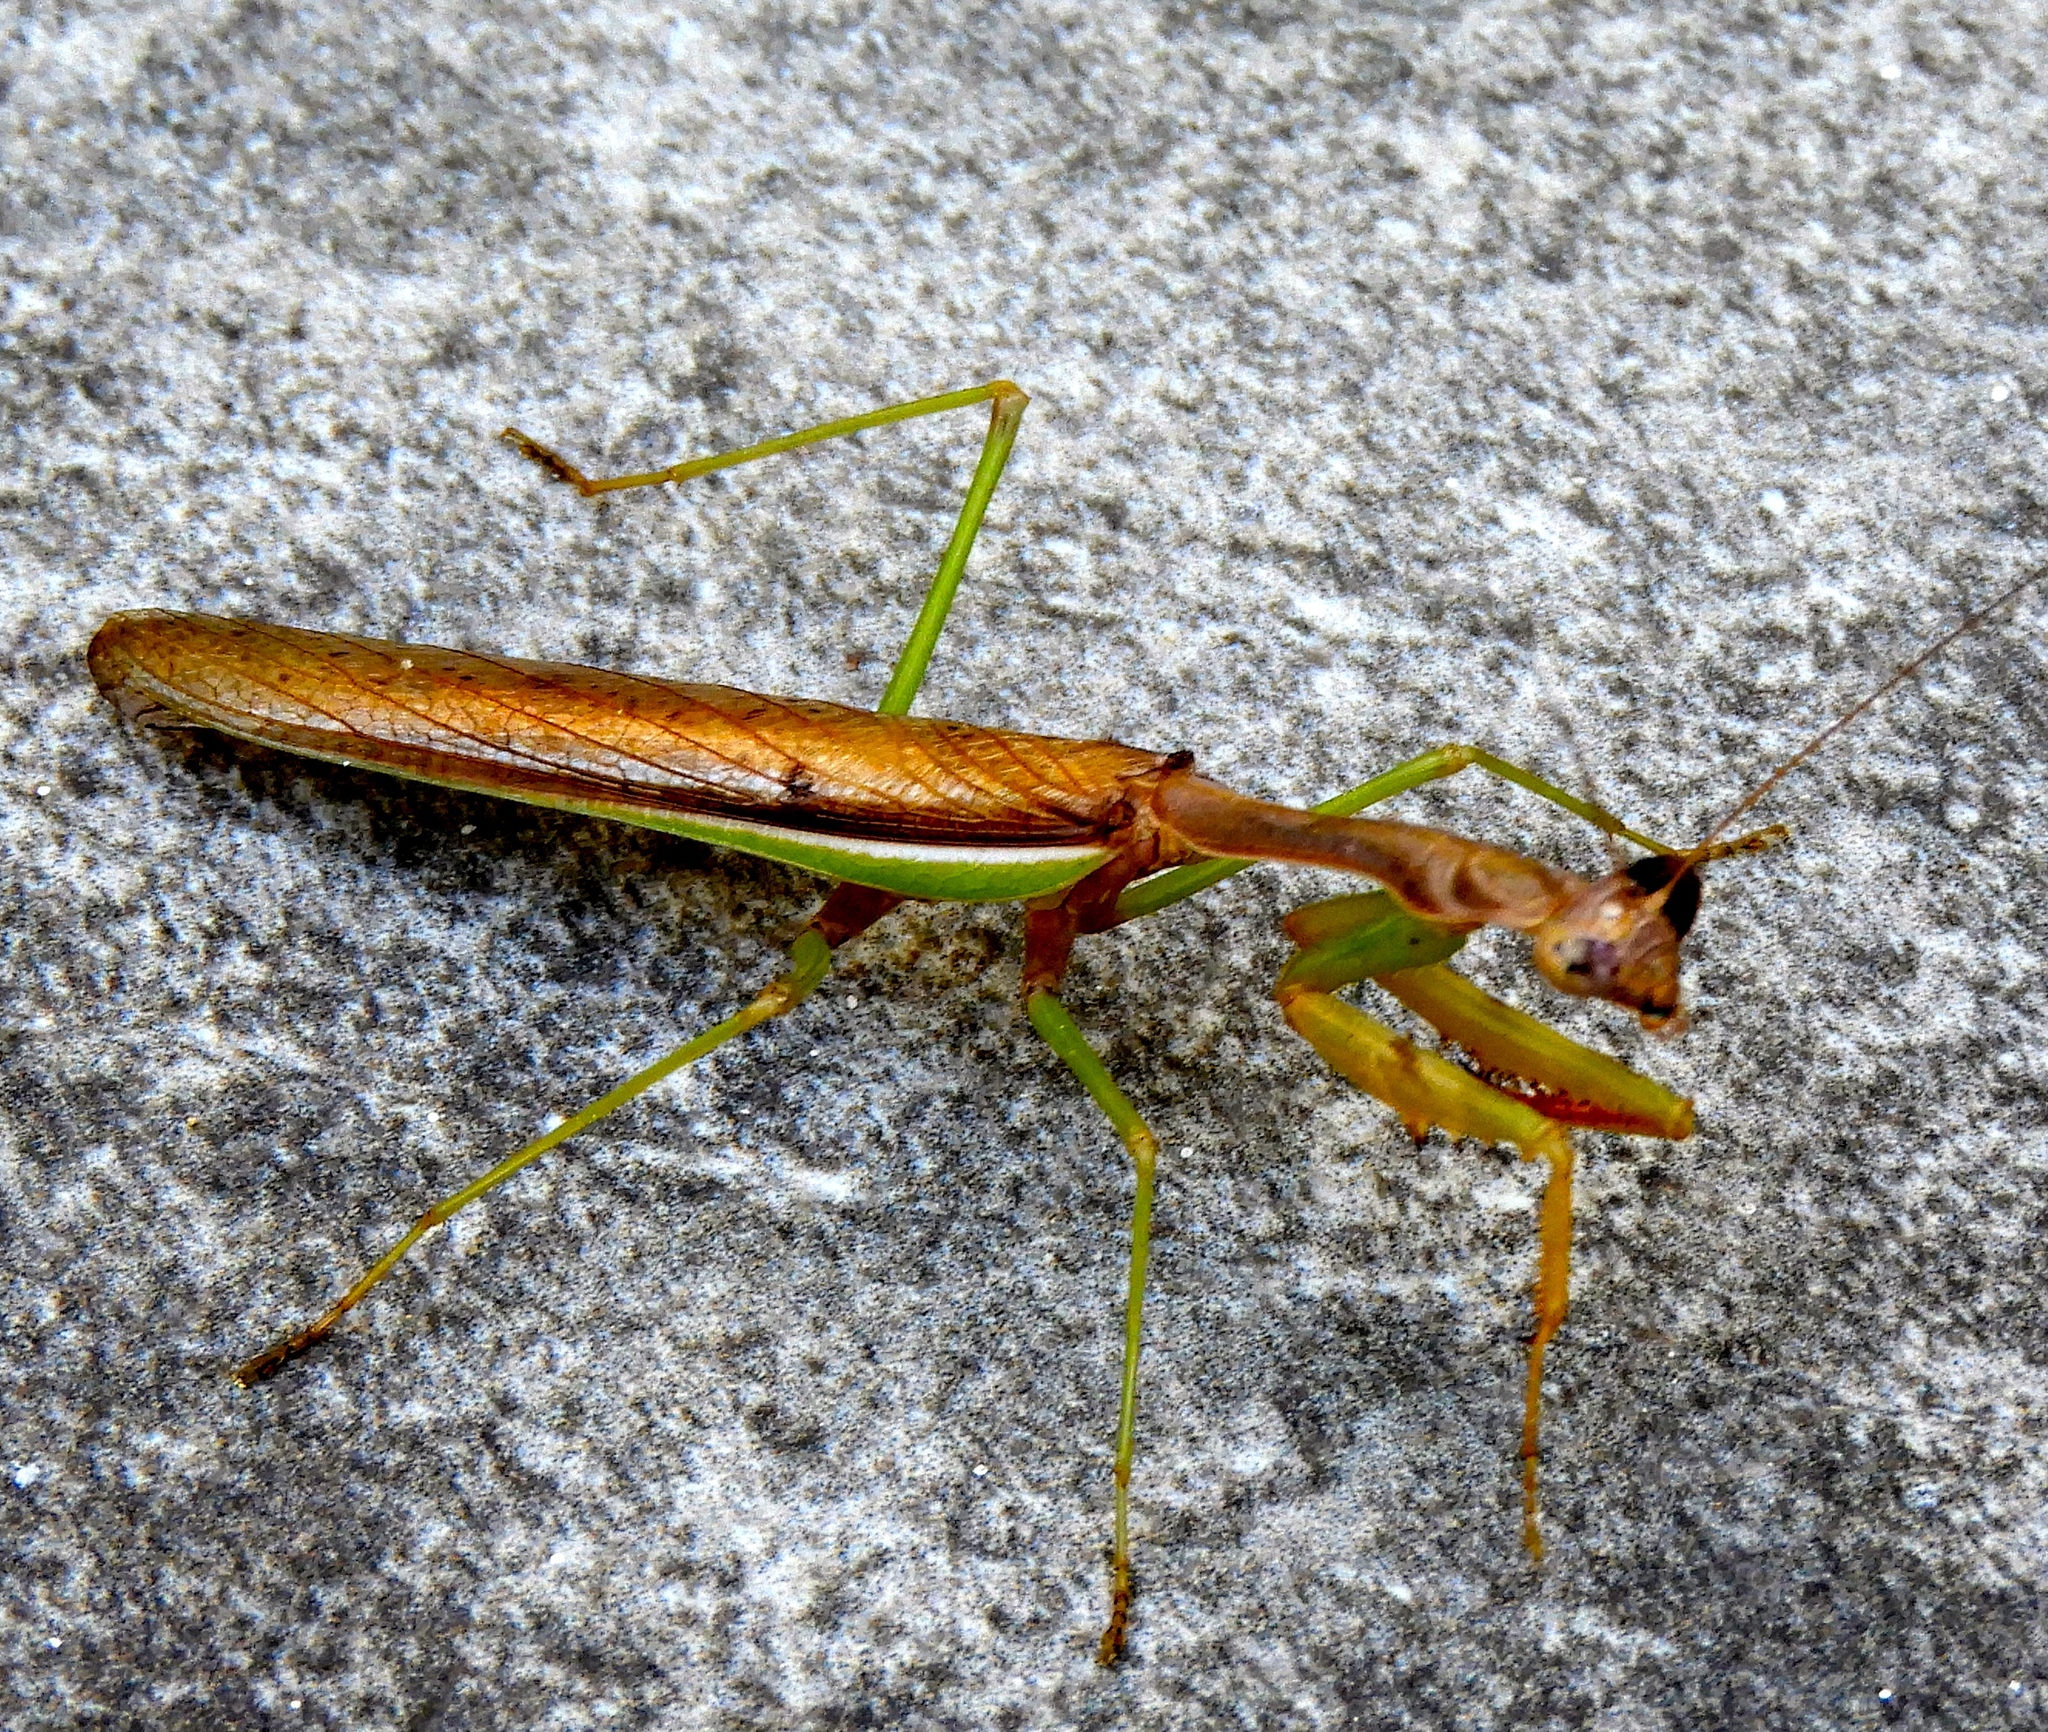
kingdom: Animalia
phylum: Arthropoda
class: Insecta
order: Mantodea
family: Mantidae
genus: Stagmomantis
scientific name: Stagmomantis montana
